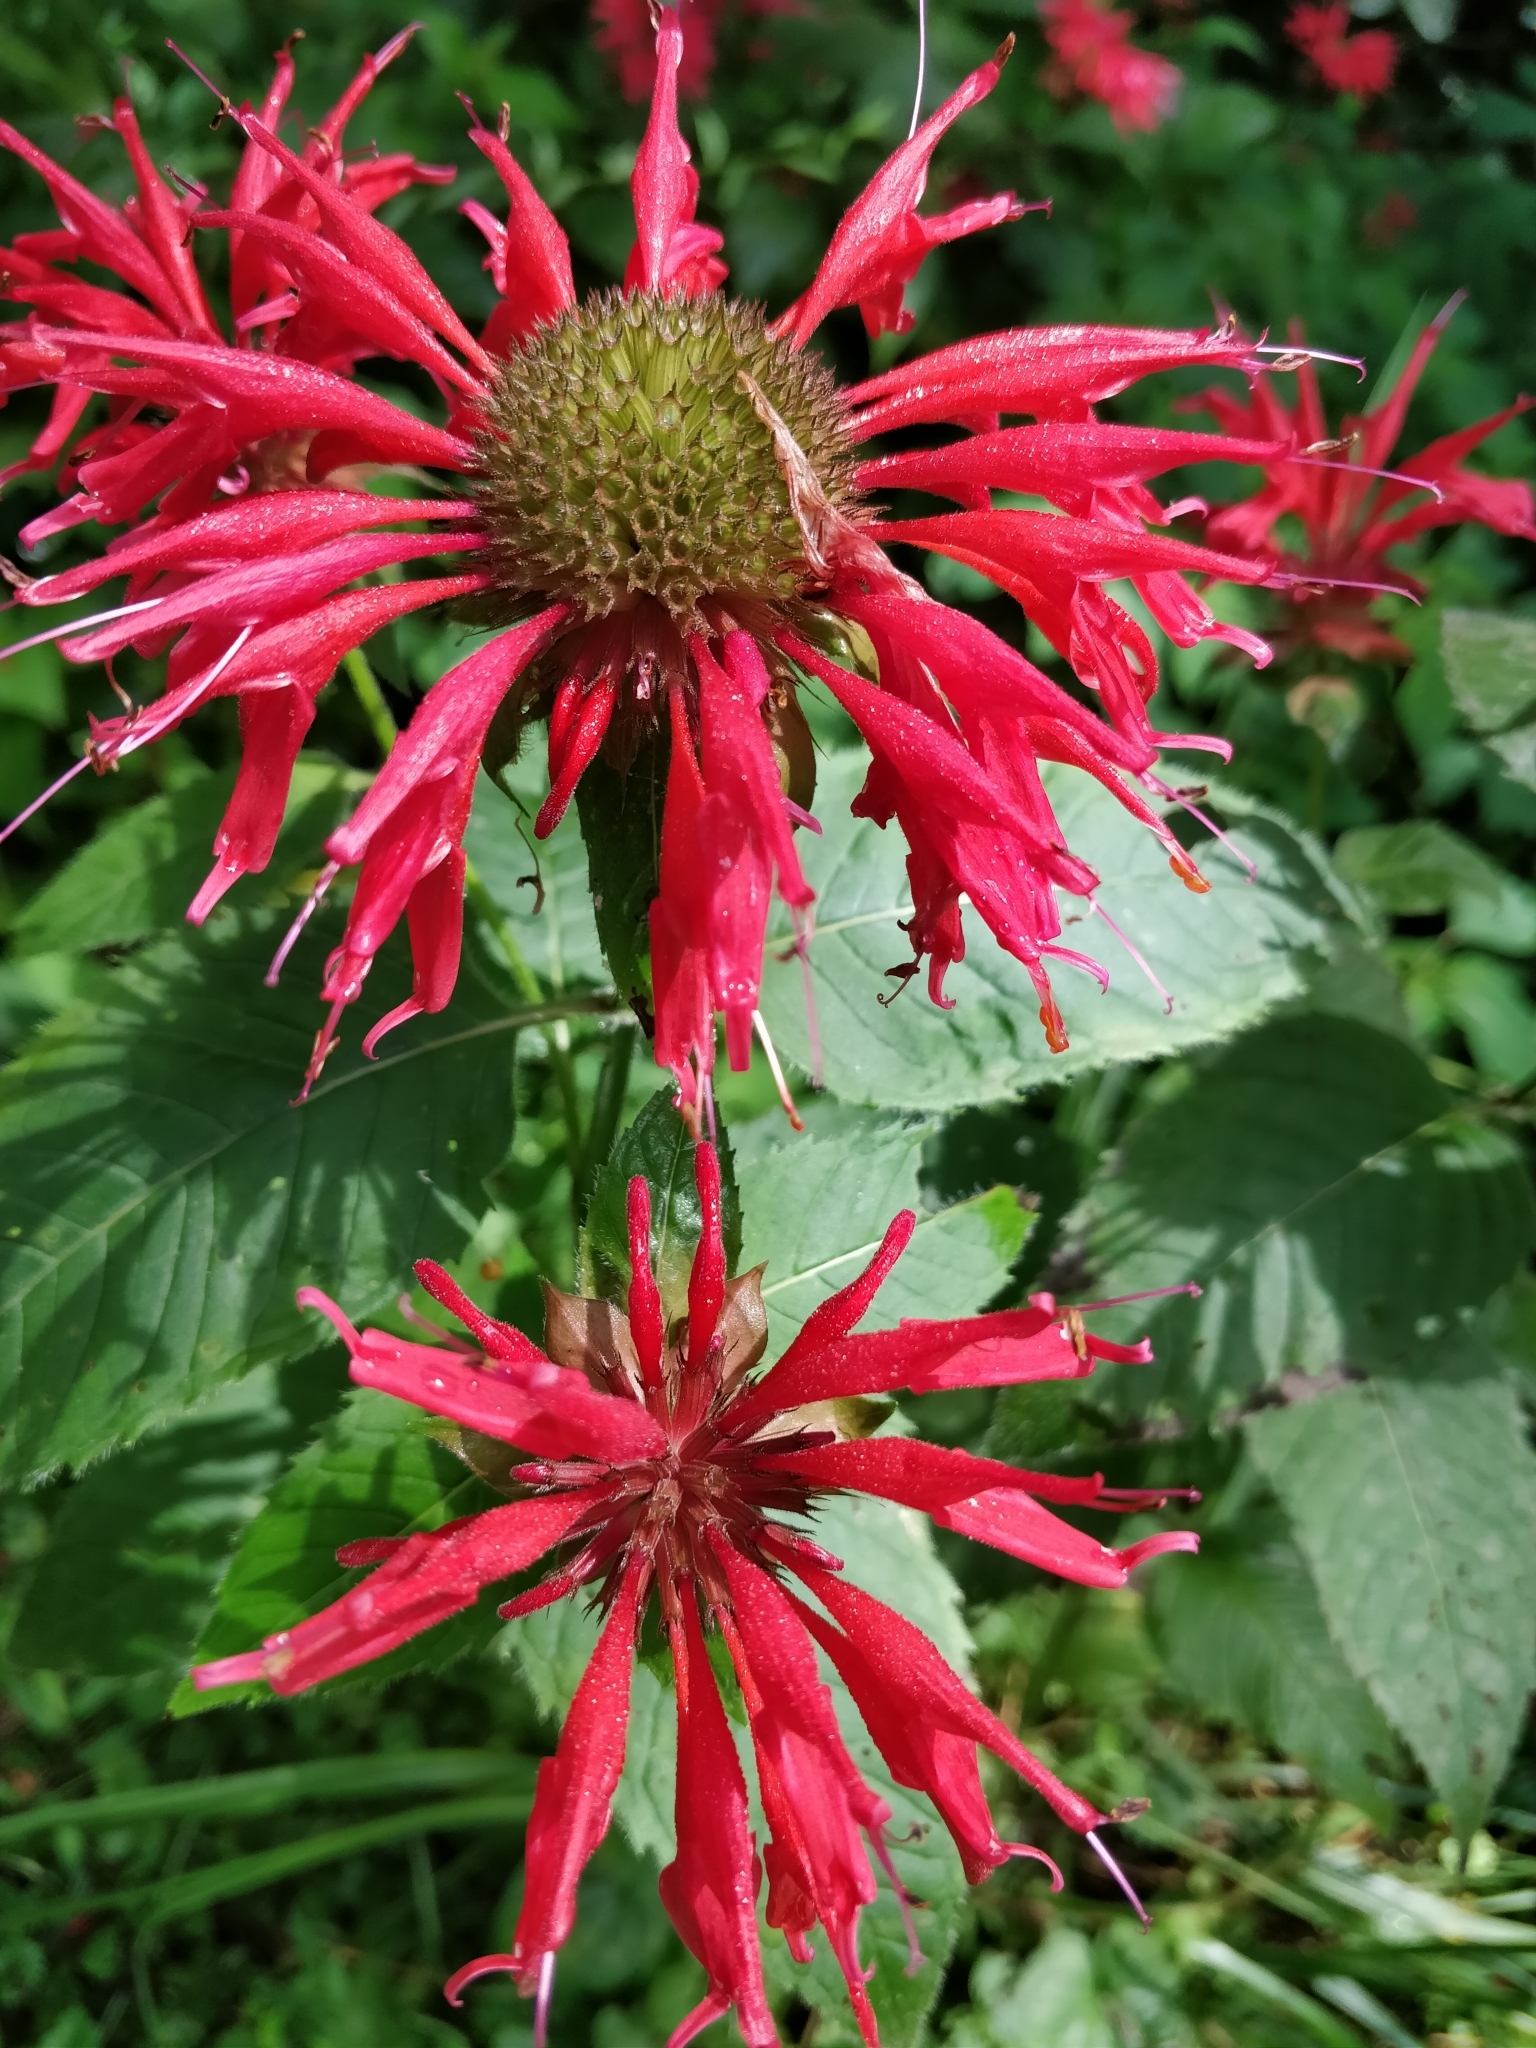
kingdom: Plantae
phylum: Tracheophyta
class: Magnoliopsida
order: Lamiales
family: Lamiaceae
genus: Monarda
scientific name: Monarda didyma
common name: Beebalm
